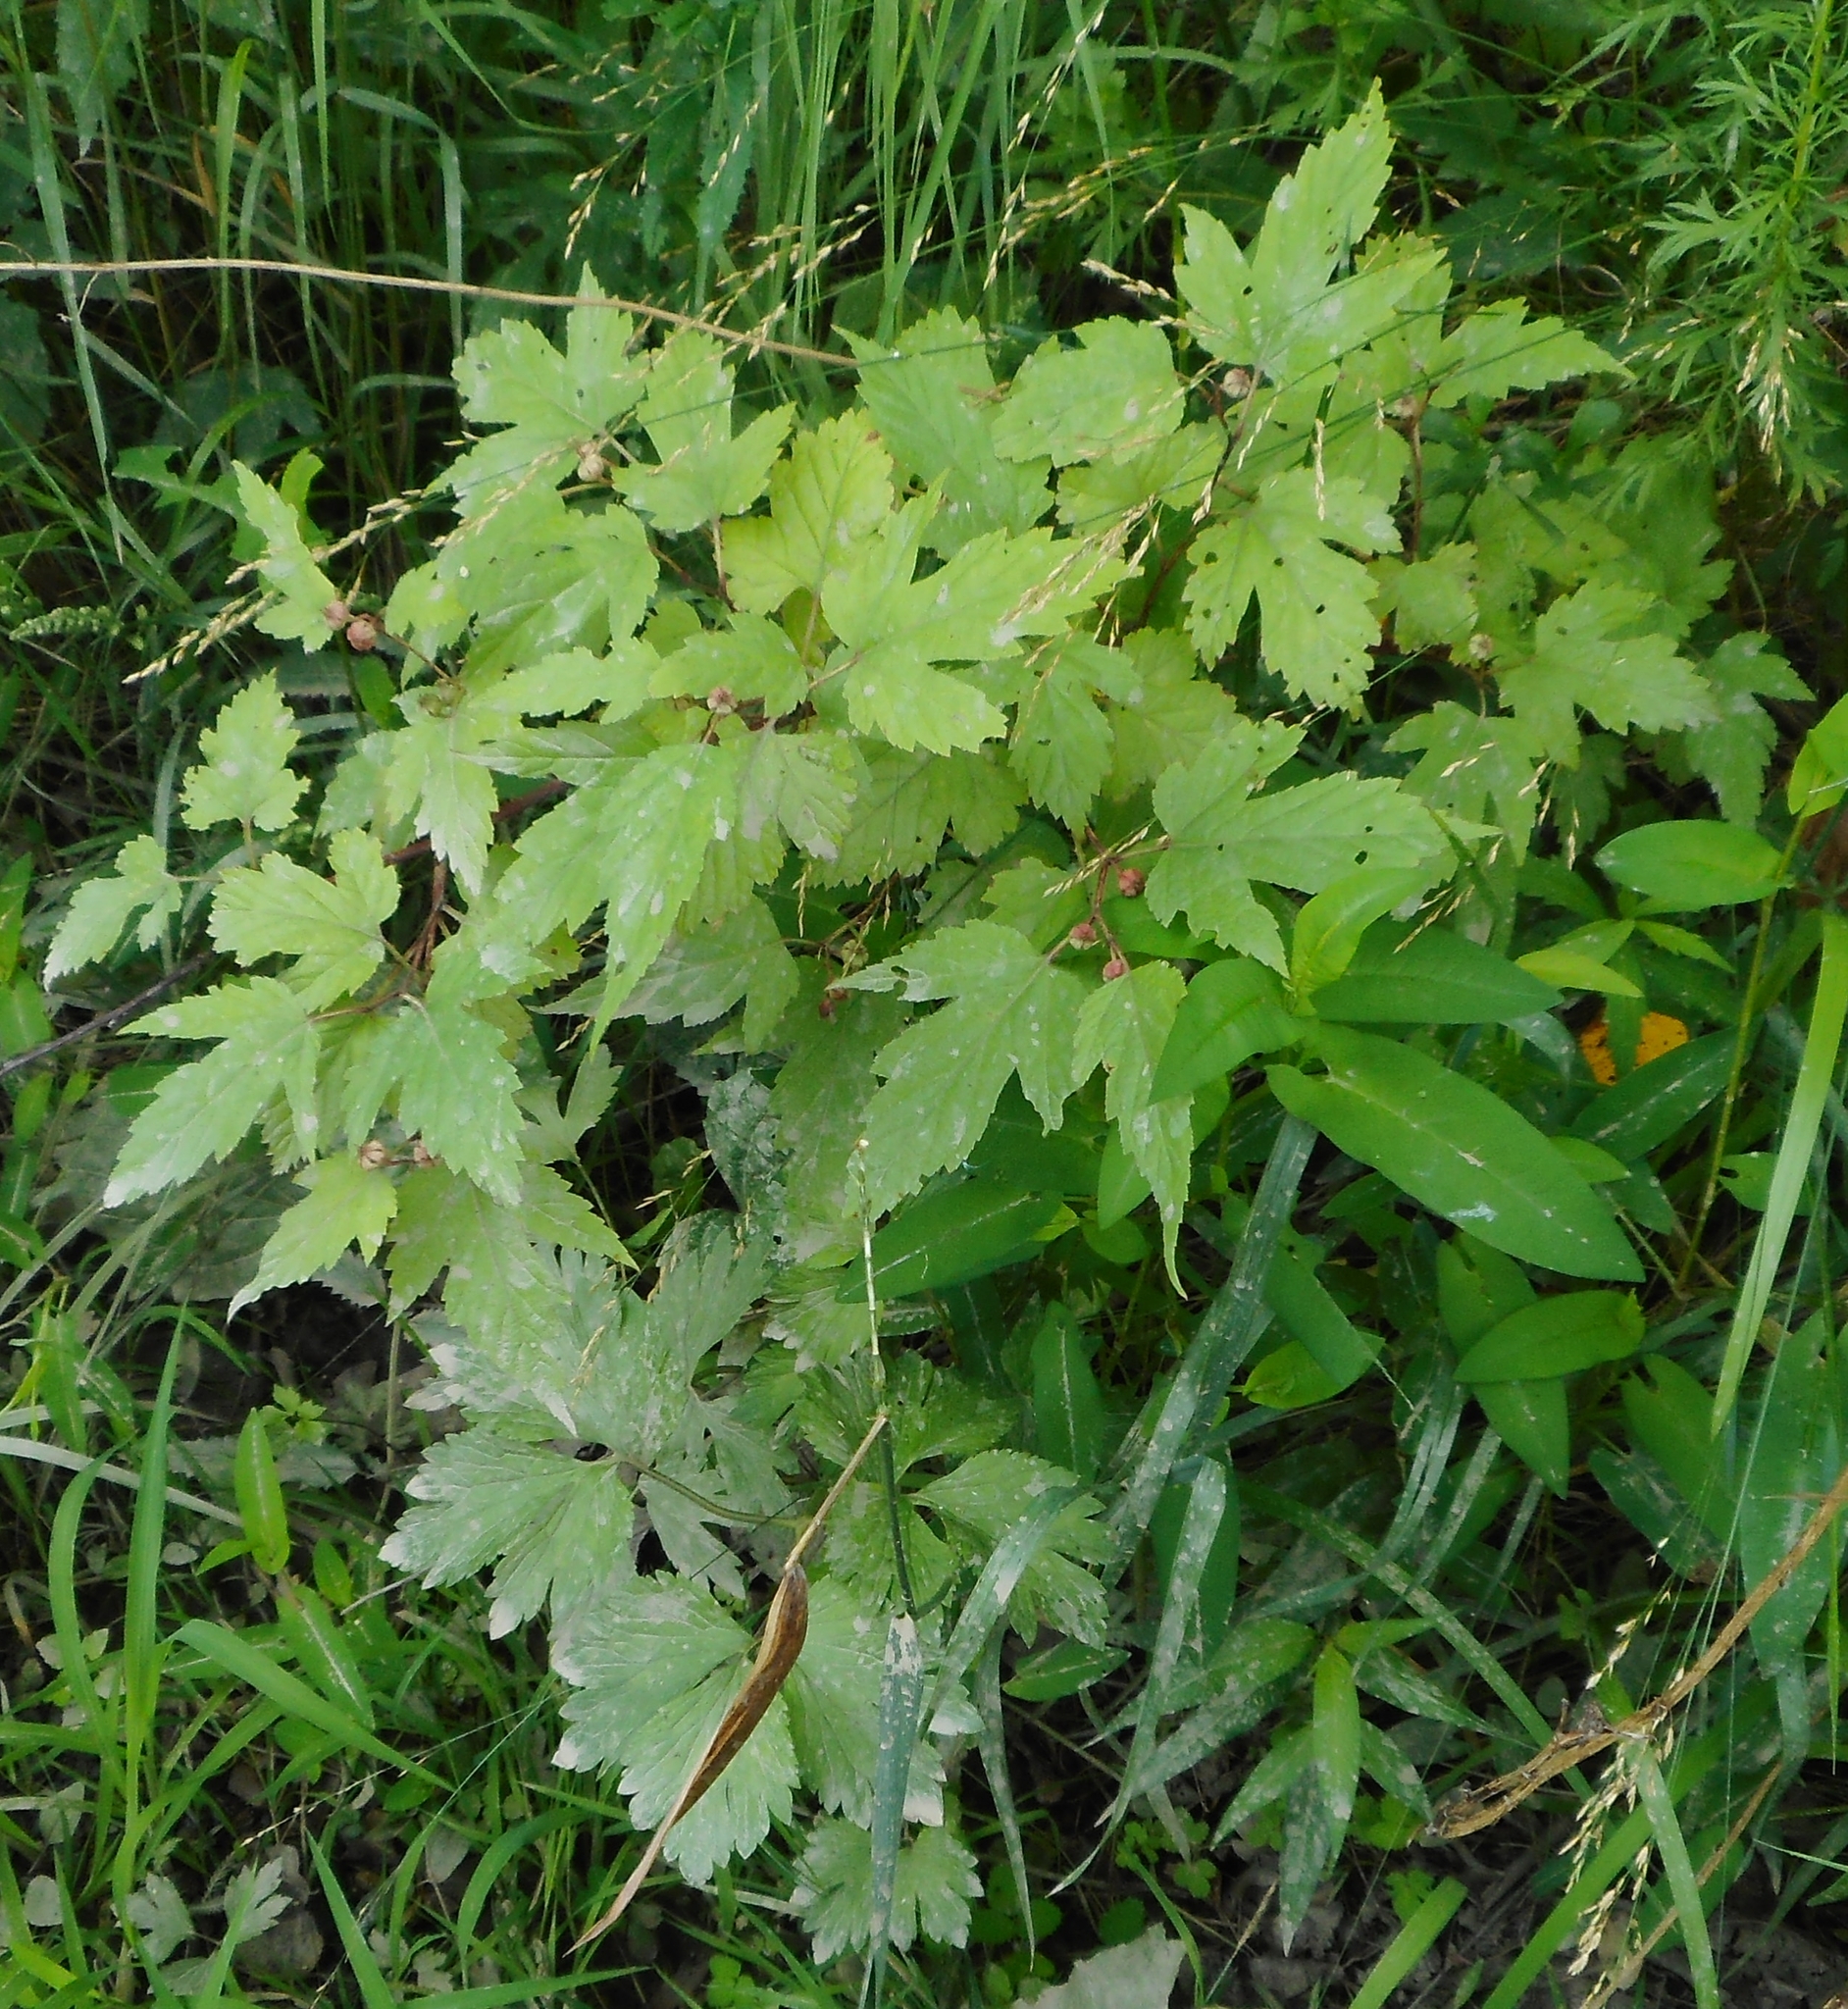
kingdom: Plantae
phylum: Tracheophyta
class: Magnoliopsida
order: Rosales
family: Rosaceae
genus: Rubus
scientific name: Rubus crataegifolius
